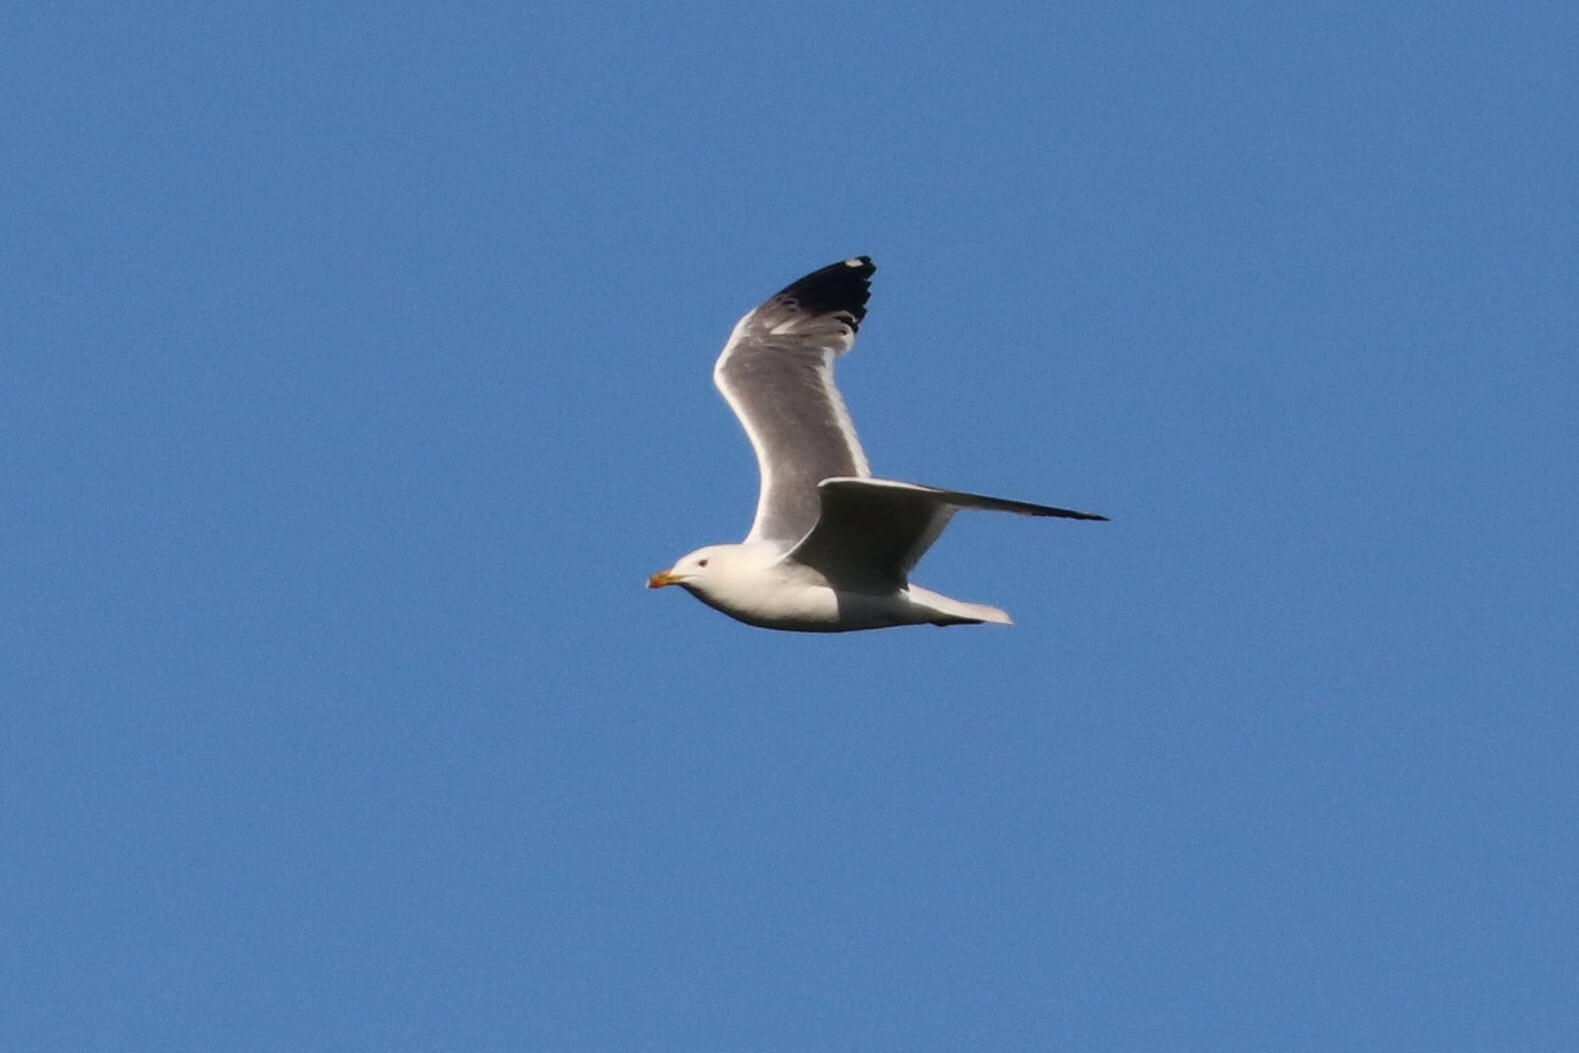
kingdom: Animalia
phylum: Chordata
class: Aves
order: Charadriiformes
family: Laridae
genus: Larus
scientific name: Larus fuscus
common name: Lesser black-backed gull
